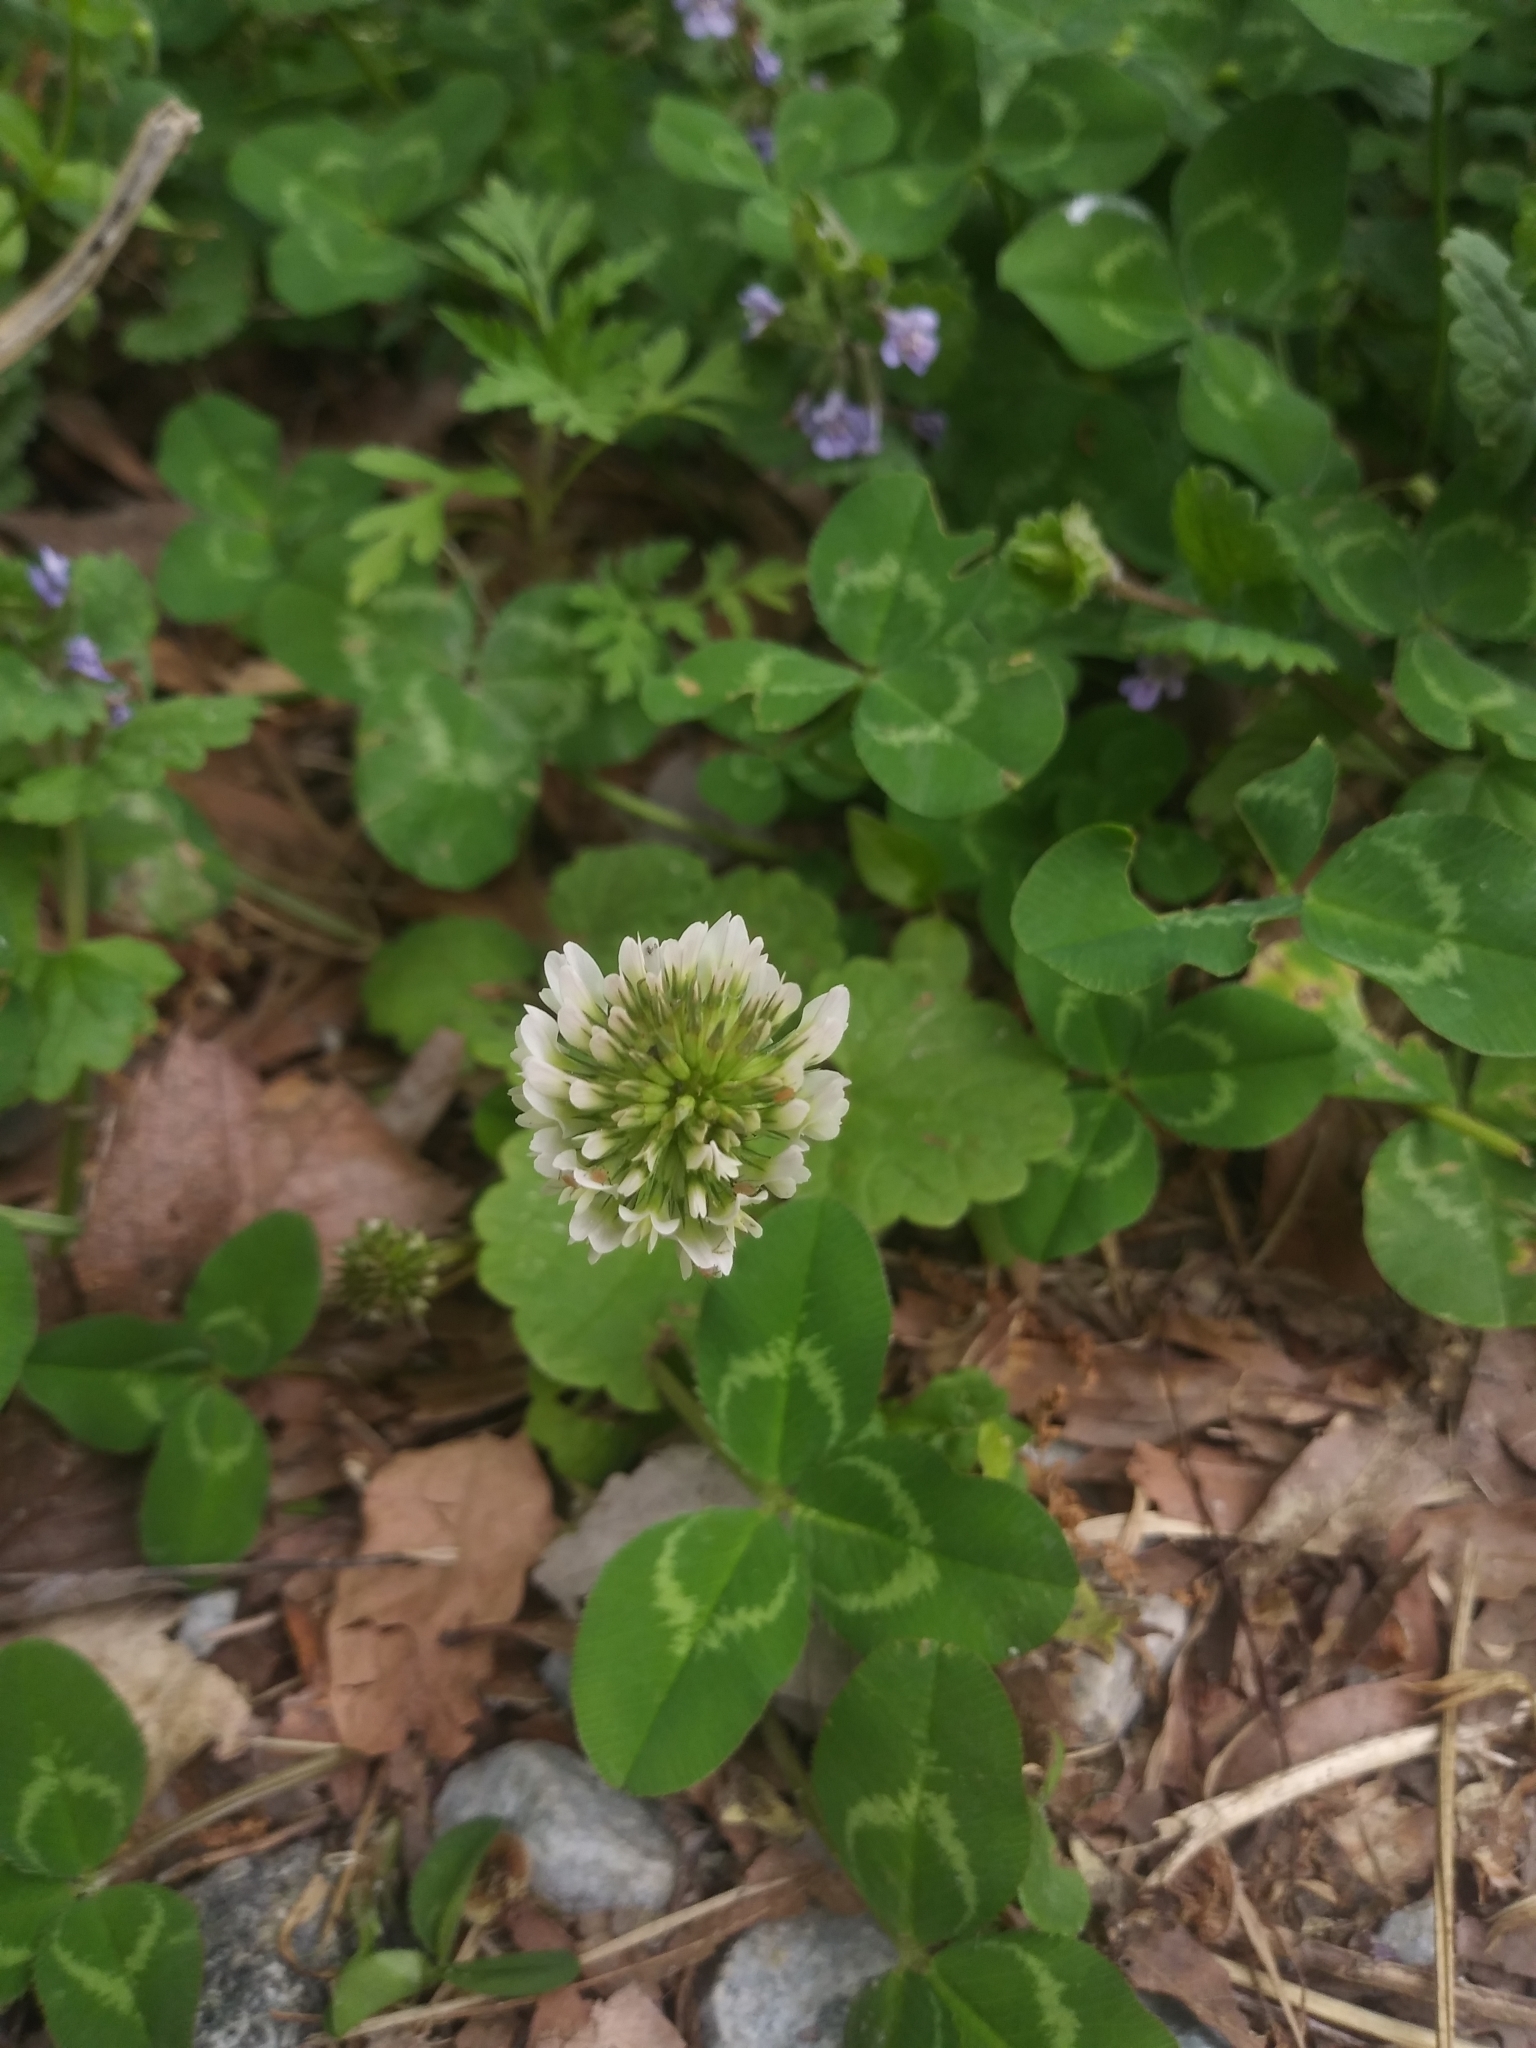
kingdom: Plantae
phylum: Tracheophyta
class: Magnoliopsida
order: Fabales
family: Fabaceae
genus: Trifolium
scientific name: Trifolium repens
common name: White clover
